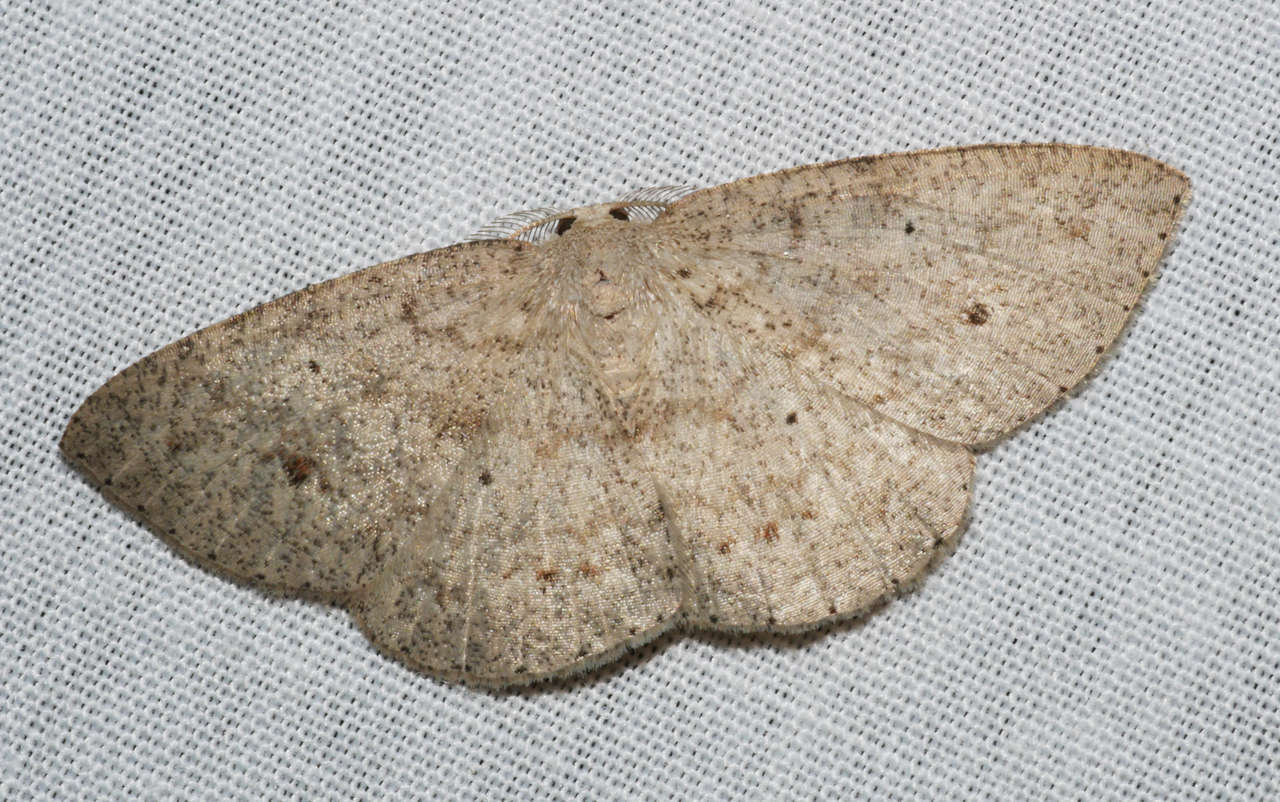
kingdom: Animalia
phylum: Arthropoda
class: Insecta
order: Lepidoptera
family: Geometridae
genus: Casbia
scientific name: Casbia farinalis
